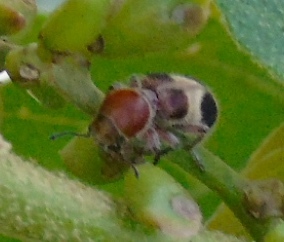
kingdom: Animalia
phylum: Arthropoda
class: Insecta
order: Coleoptera
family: Cleridae
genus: Enoclerus
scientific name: Enoclerus quadriguttatus
